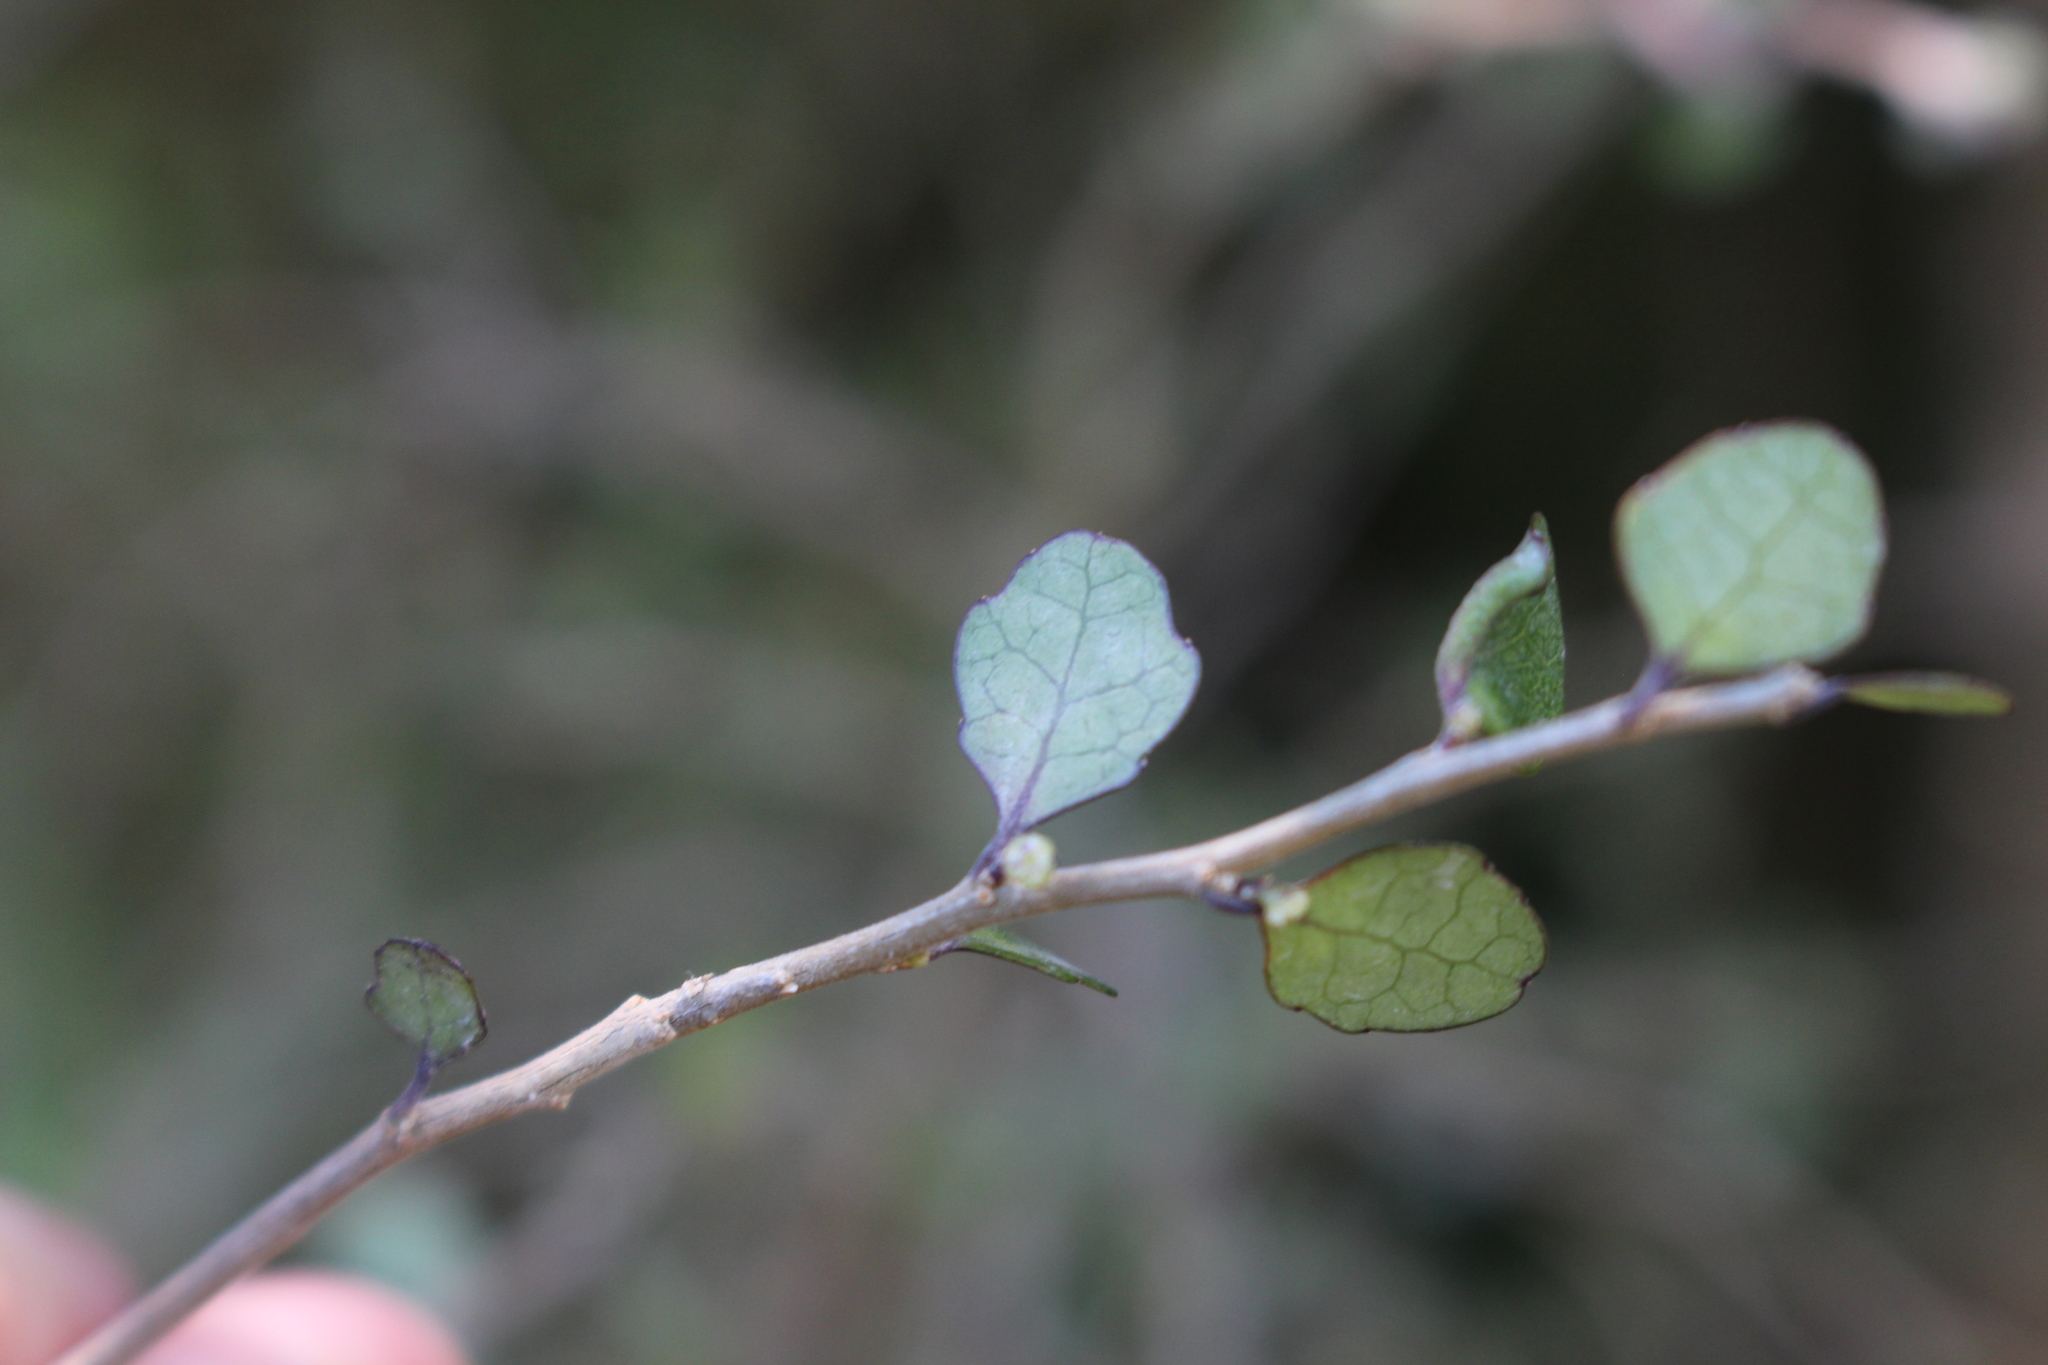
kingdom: Plantae
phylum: Tracheophyta
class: Magnoliopsida
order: Malpighiales
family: Violaceae
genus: Melicytus
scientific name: Melicytus micranthus
